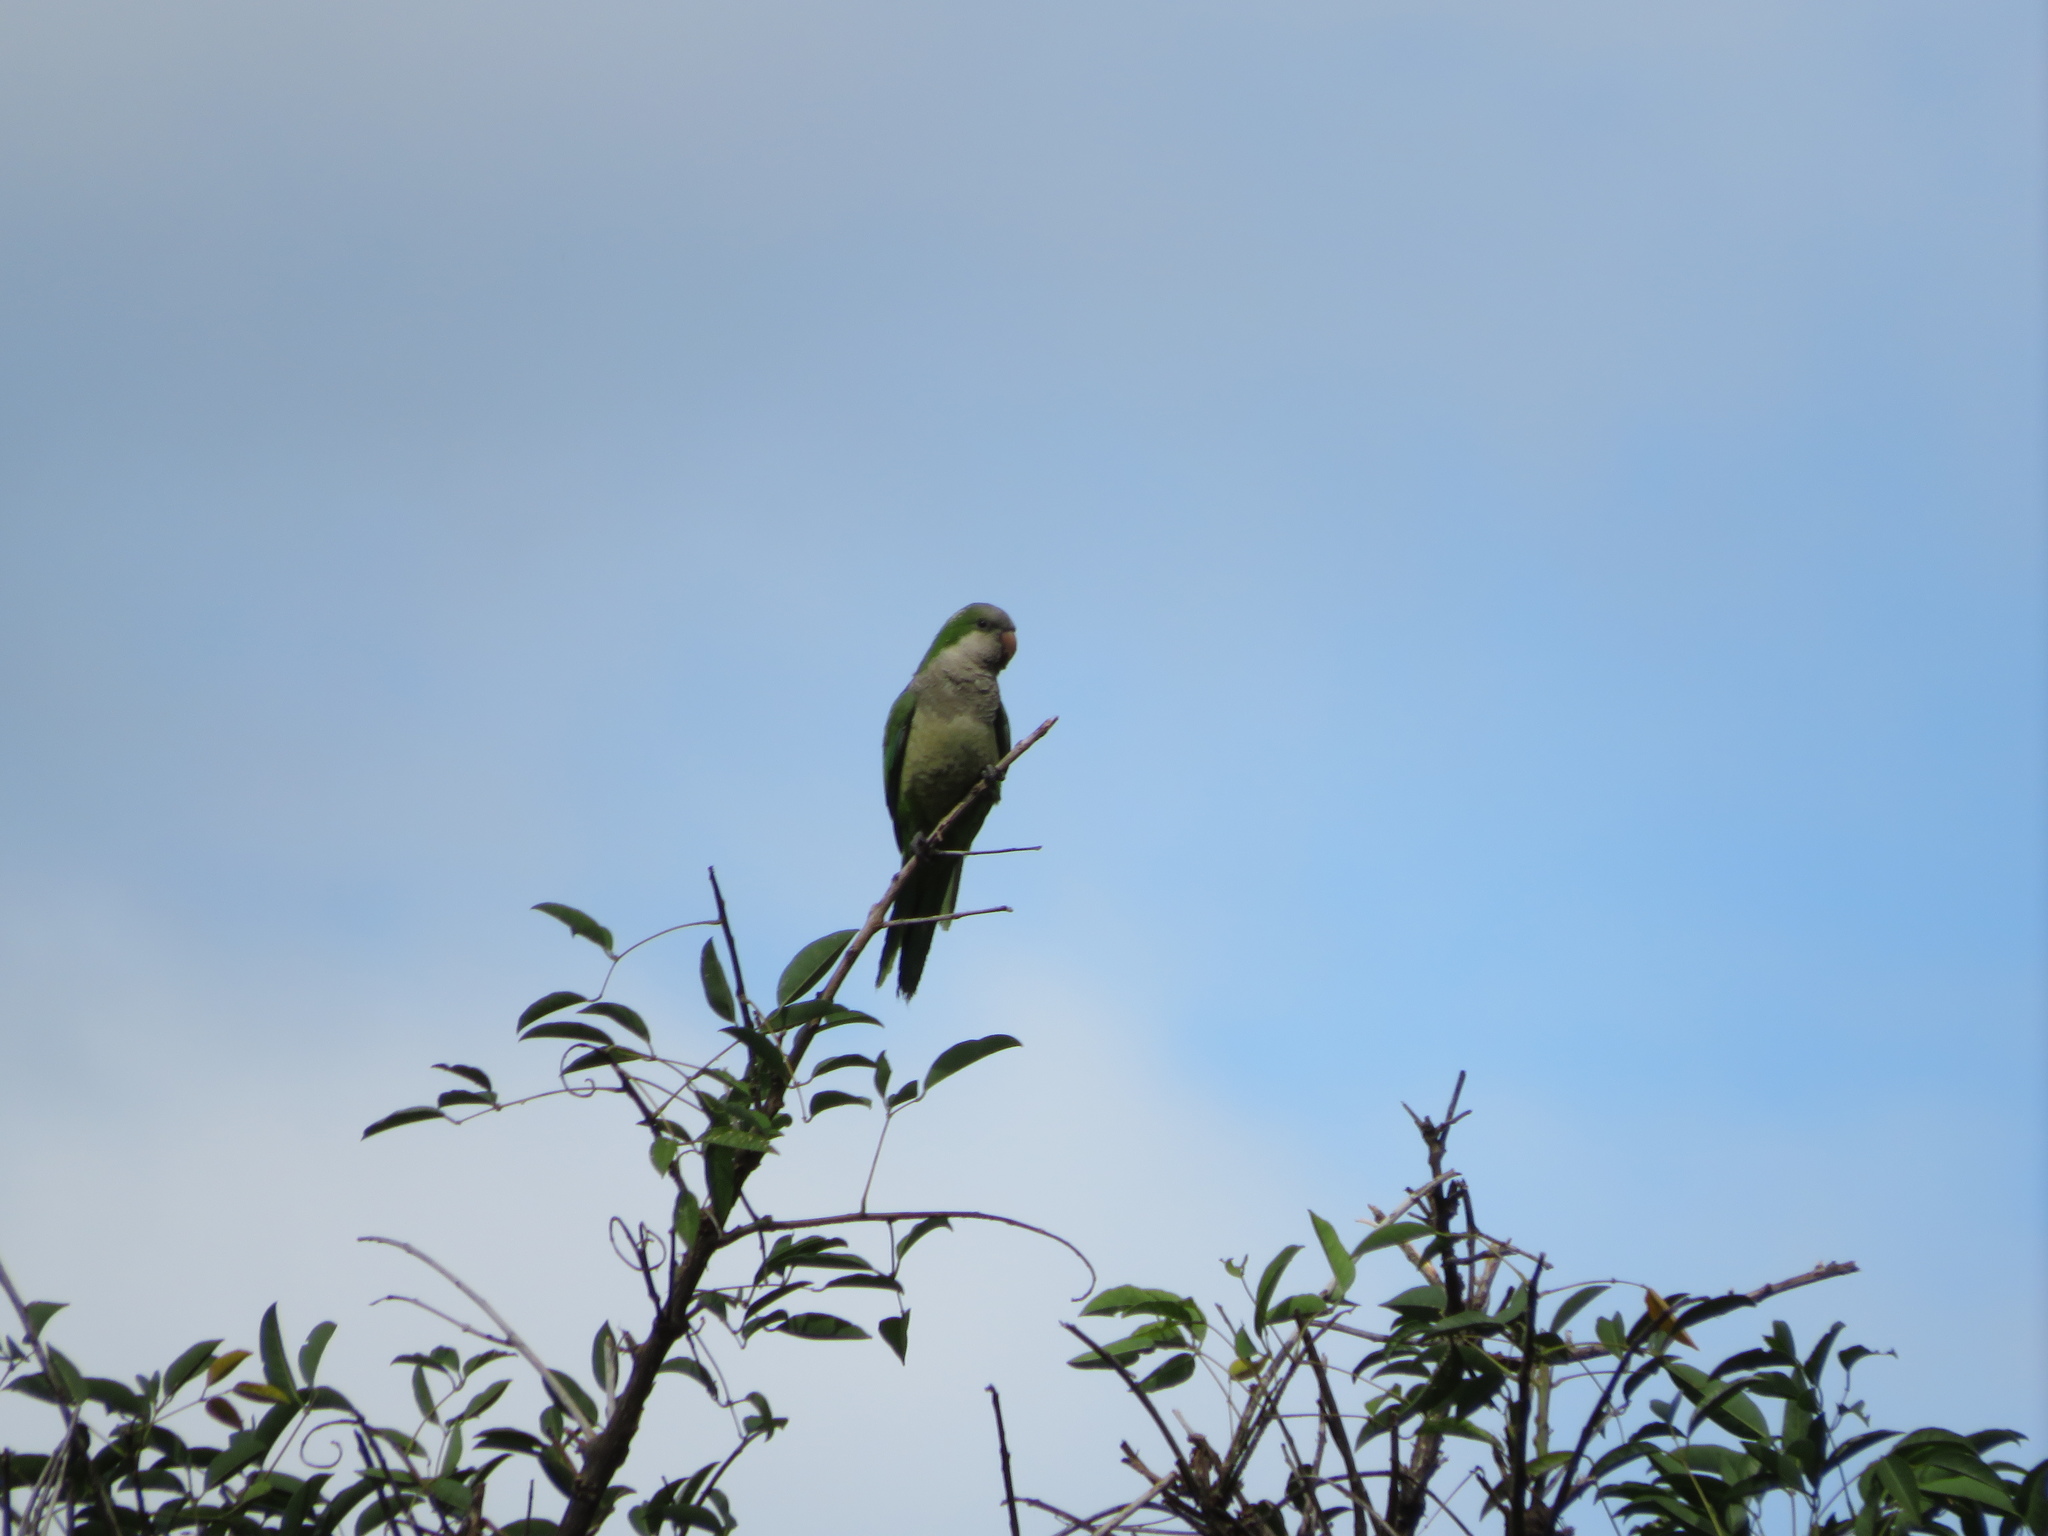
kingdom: Animalia
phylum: Chordata
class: Aves
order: Psittaciformes
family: Psittacidae
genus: Myiopsitta
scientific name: Myiopsitta monachus
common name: Monk parakeet
